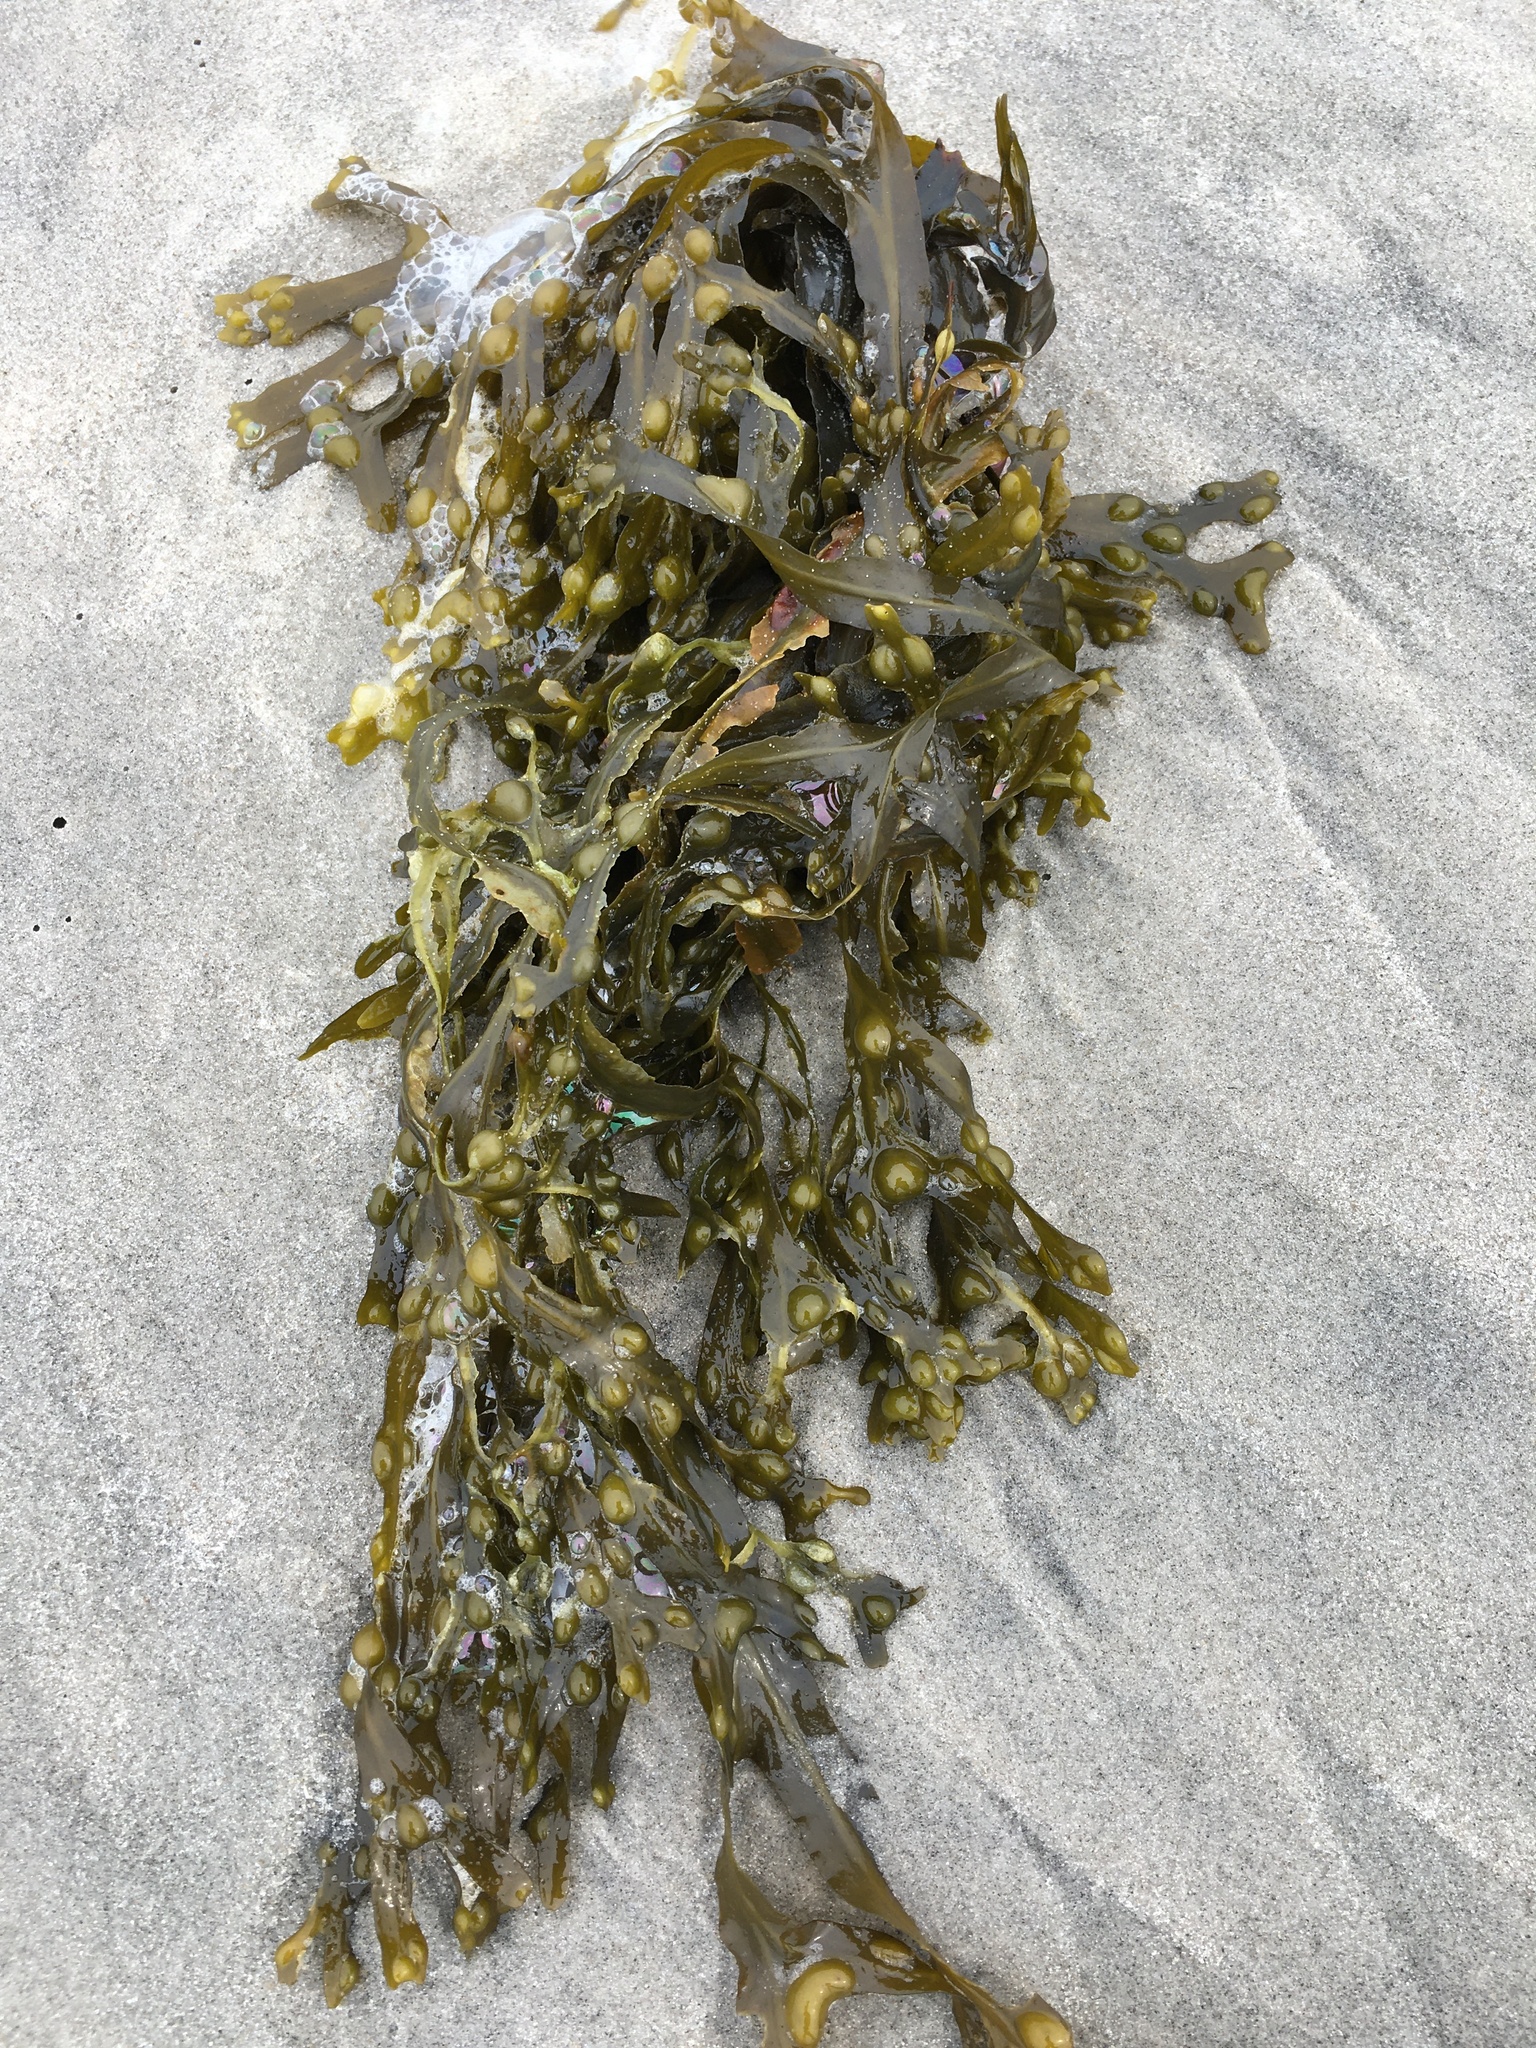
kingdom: Chromista
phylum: Ochrophyta
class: Phaeophyceae
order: Fucales
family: Fucaceae
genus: Fucus
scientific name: Fucus vesiculosus
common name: Bladder wrack
